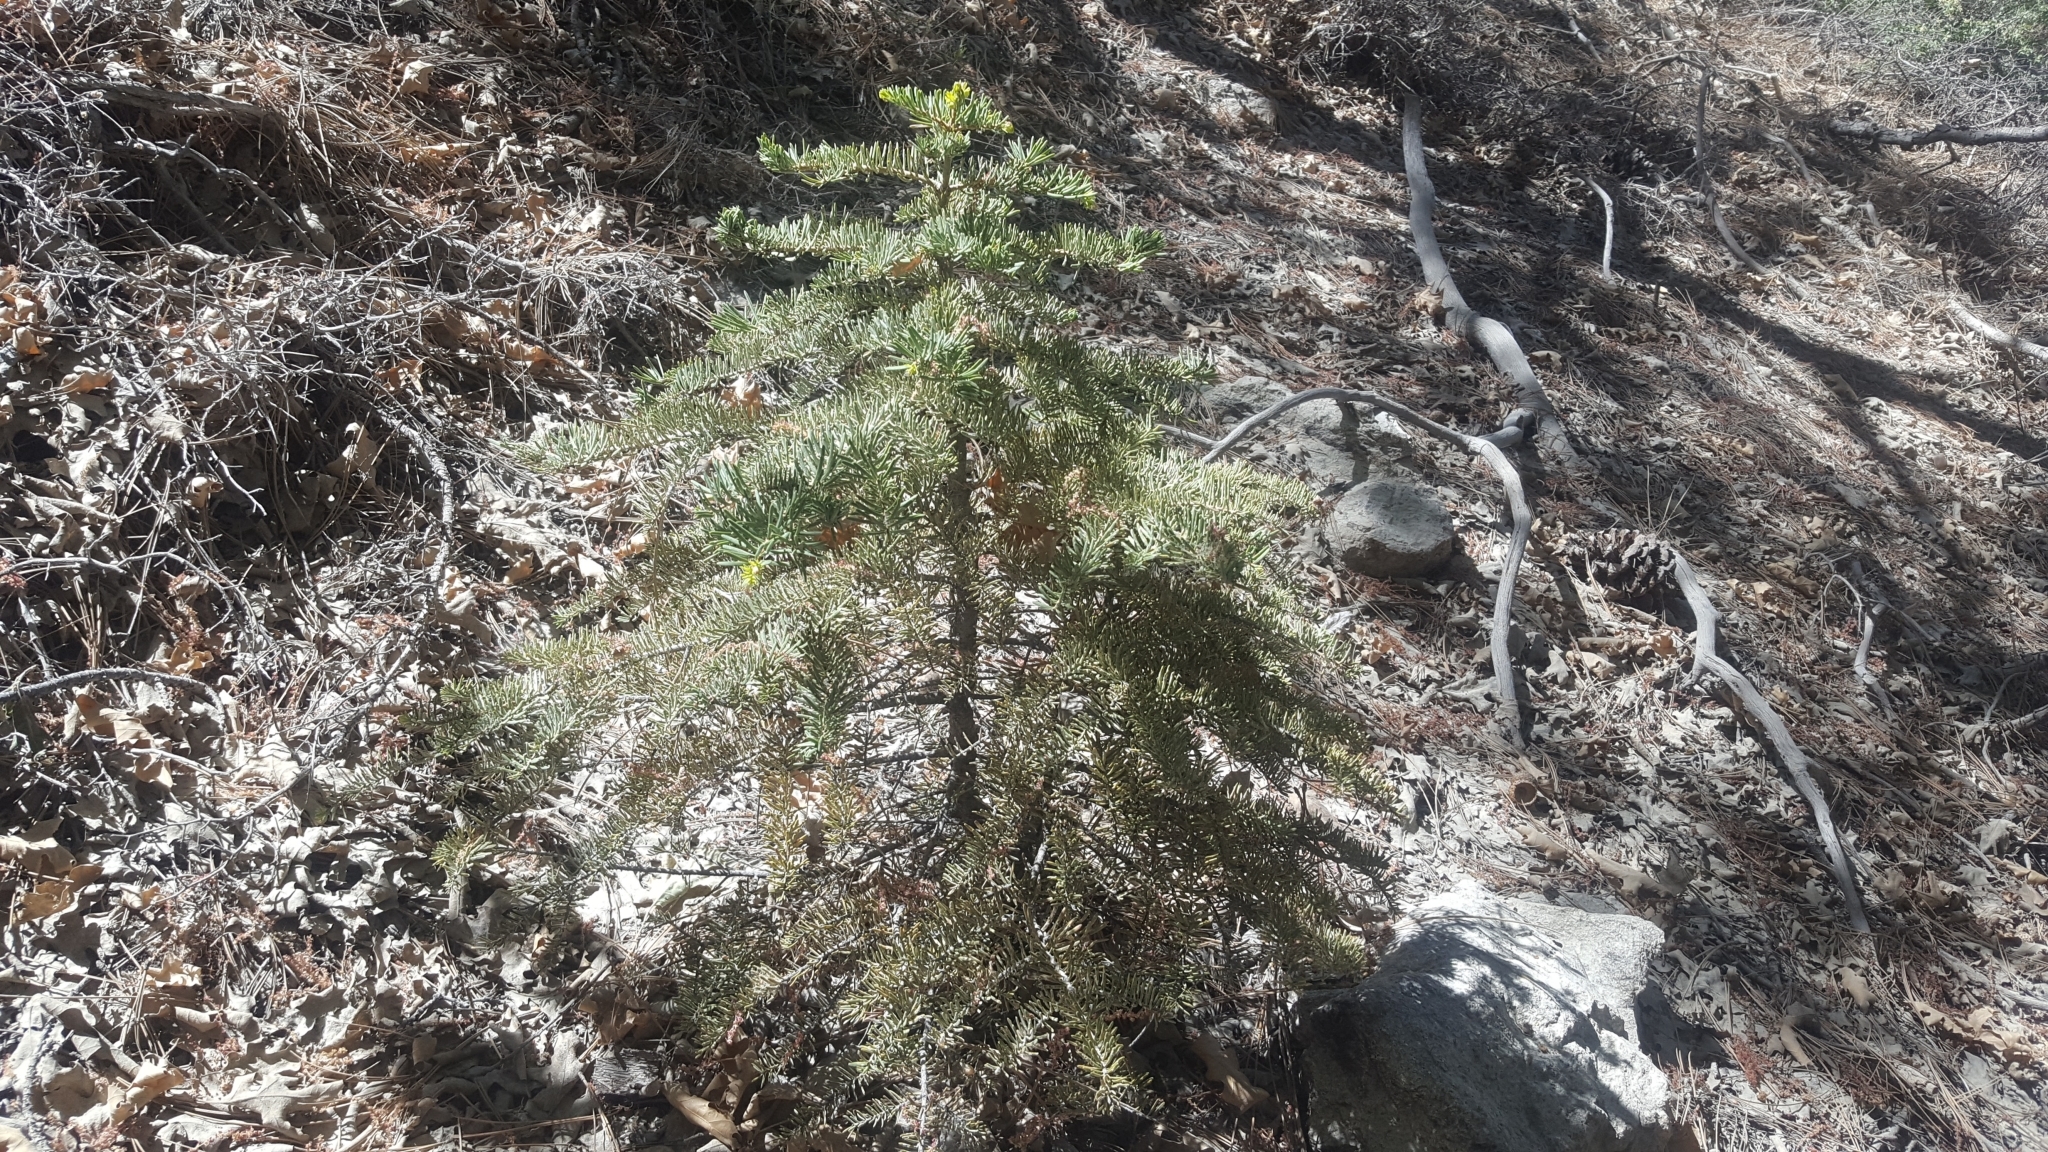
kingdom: Plantae
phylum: Tracheophyta
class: Pinopsida
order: Pinales
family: Pinaceae
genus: Abies
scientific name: Abies concolor
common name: Colorado fir
